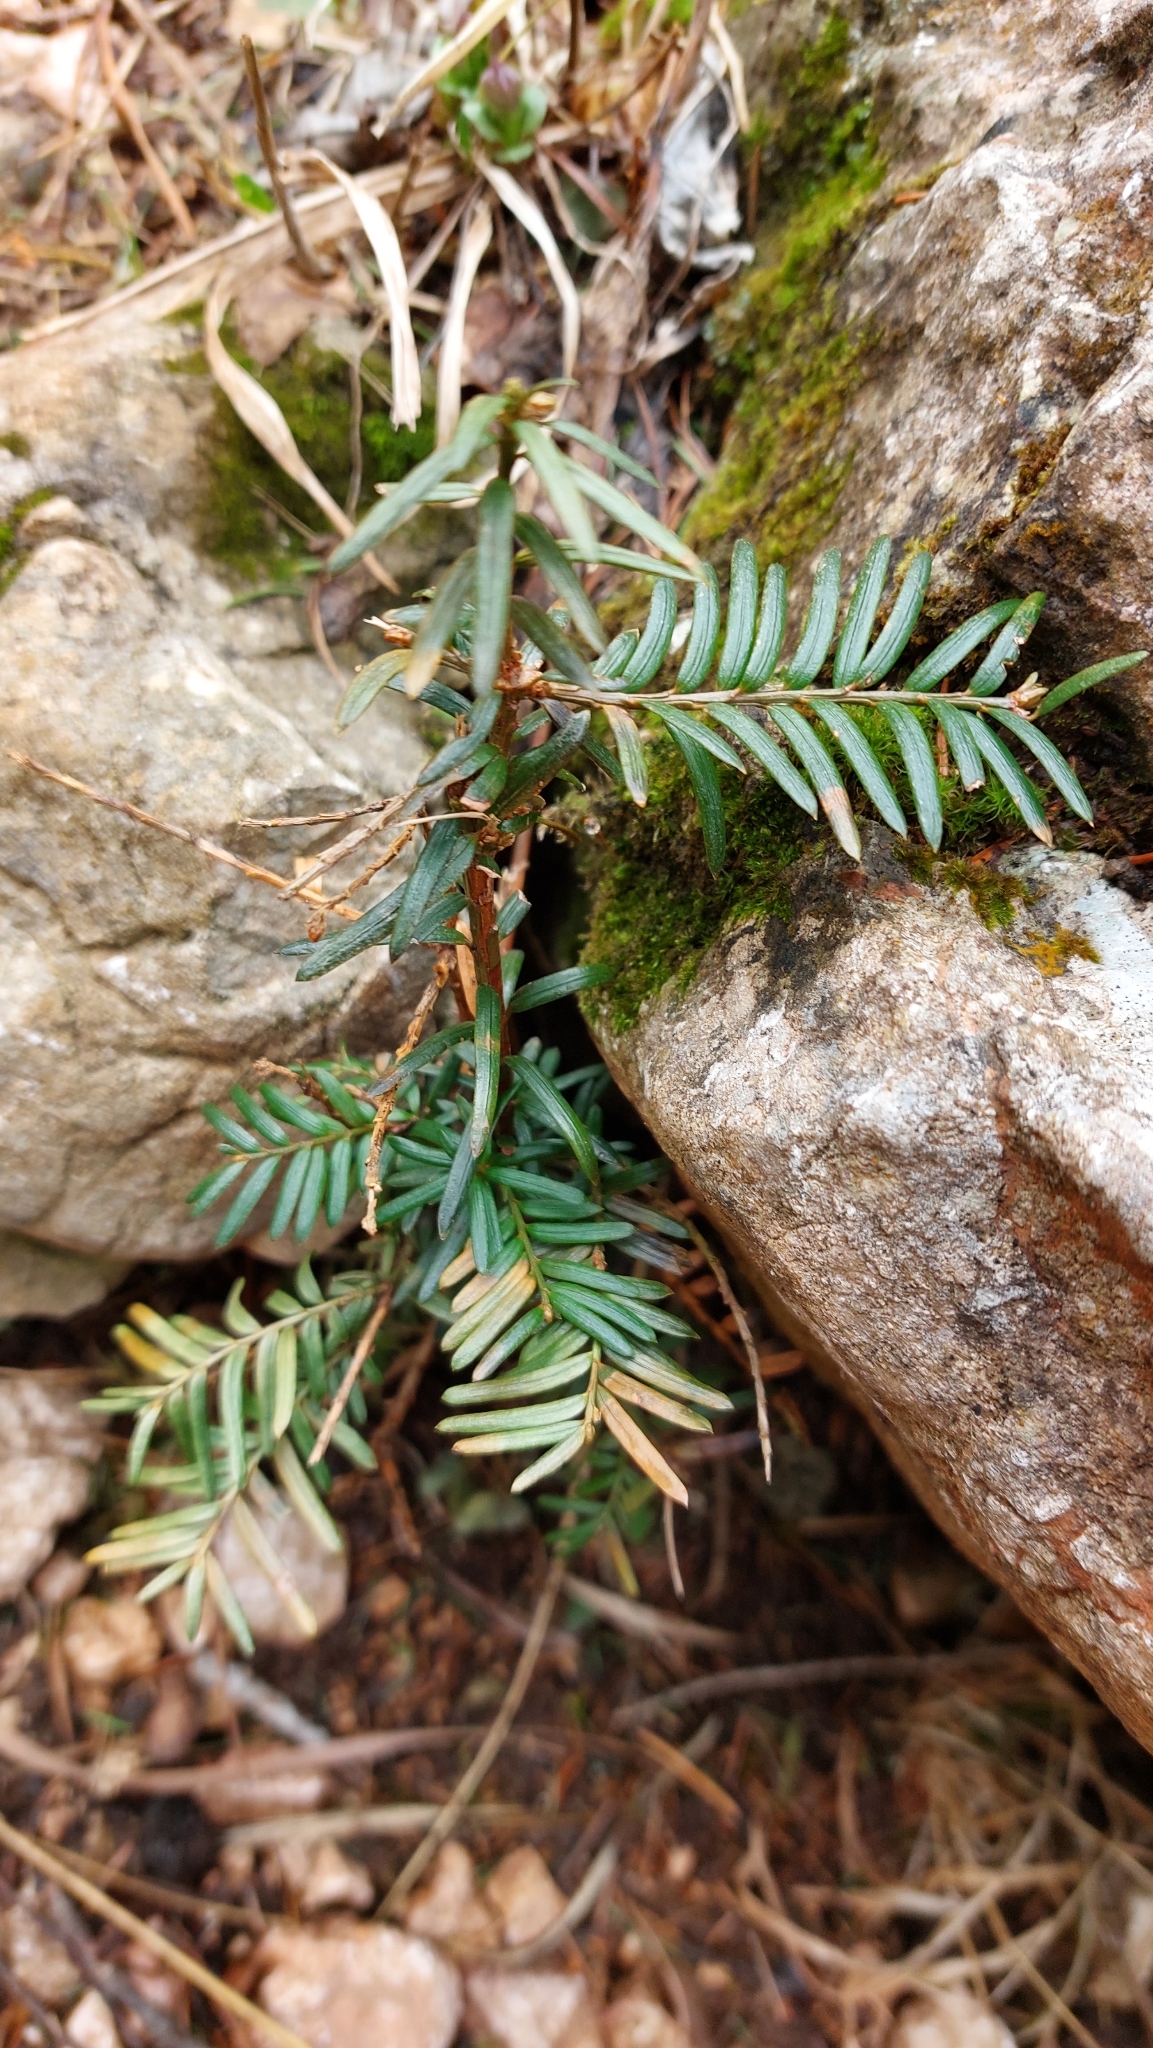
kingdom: Plantae
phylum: Tracheophyta
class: Pinopsida
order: Pinales
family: Taxaceae
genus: Taxus
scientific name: Taxus baccata
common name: Yew
